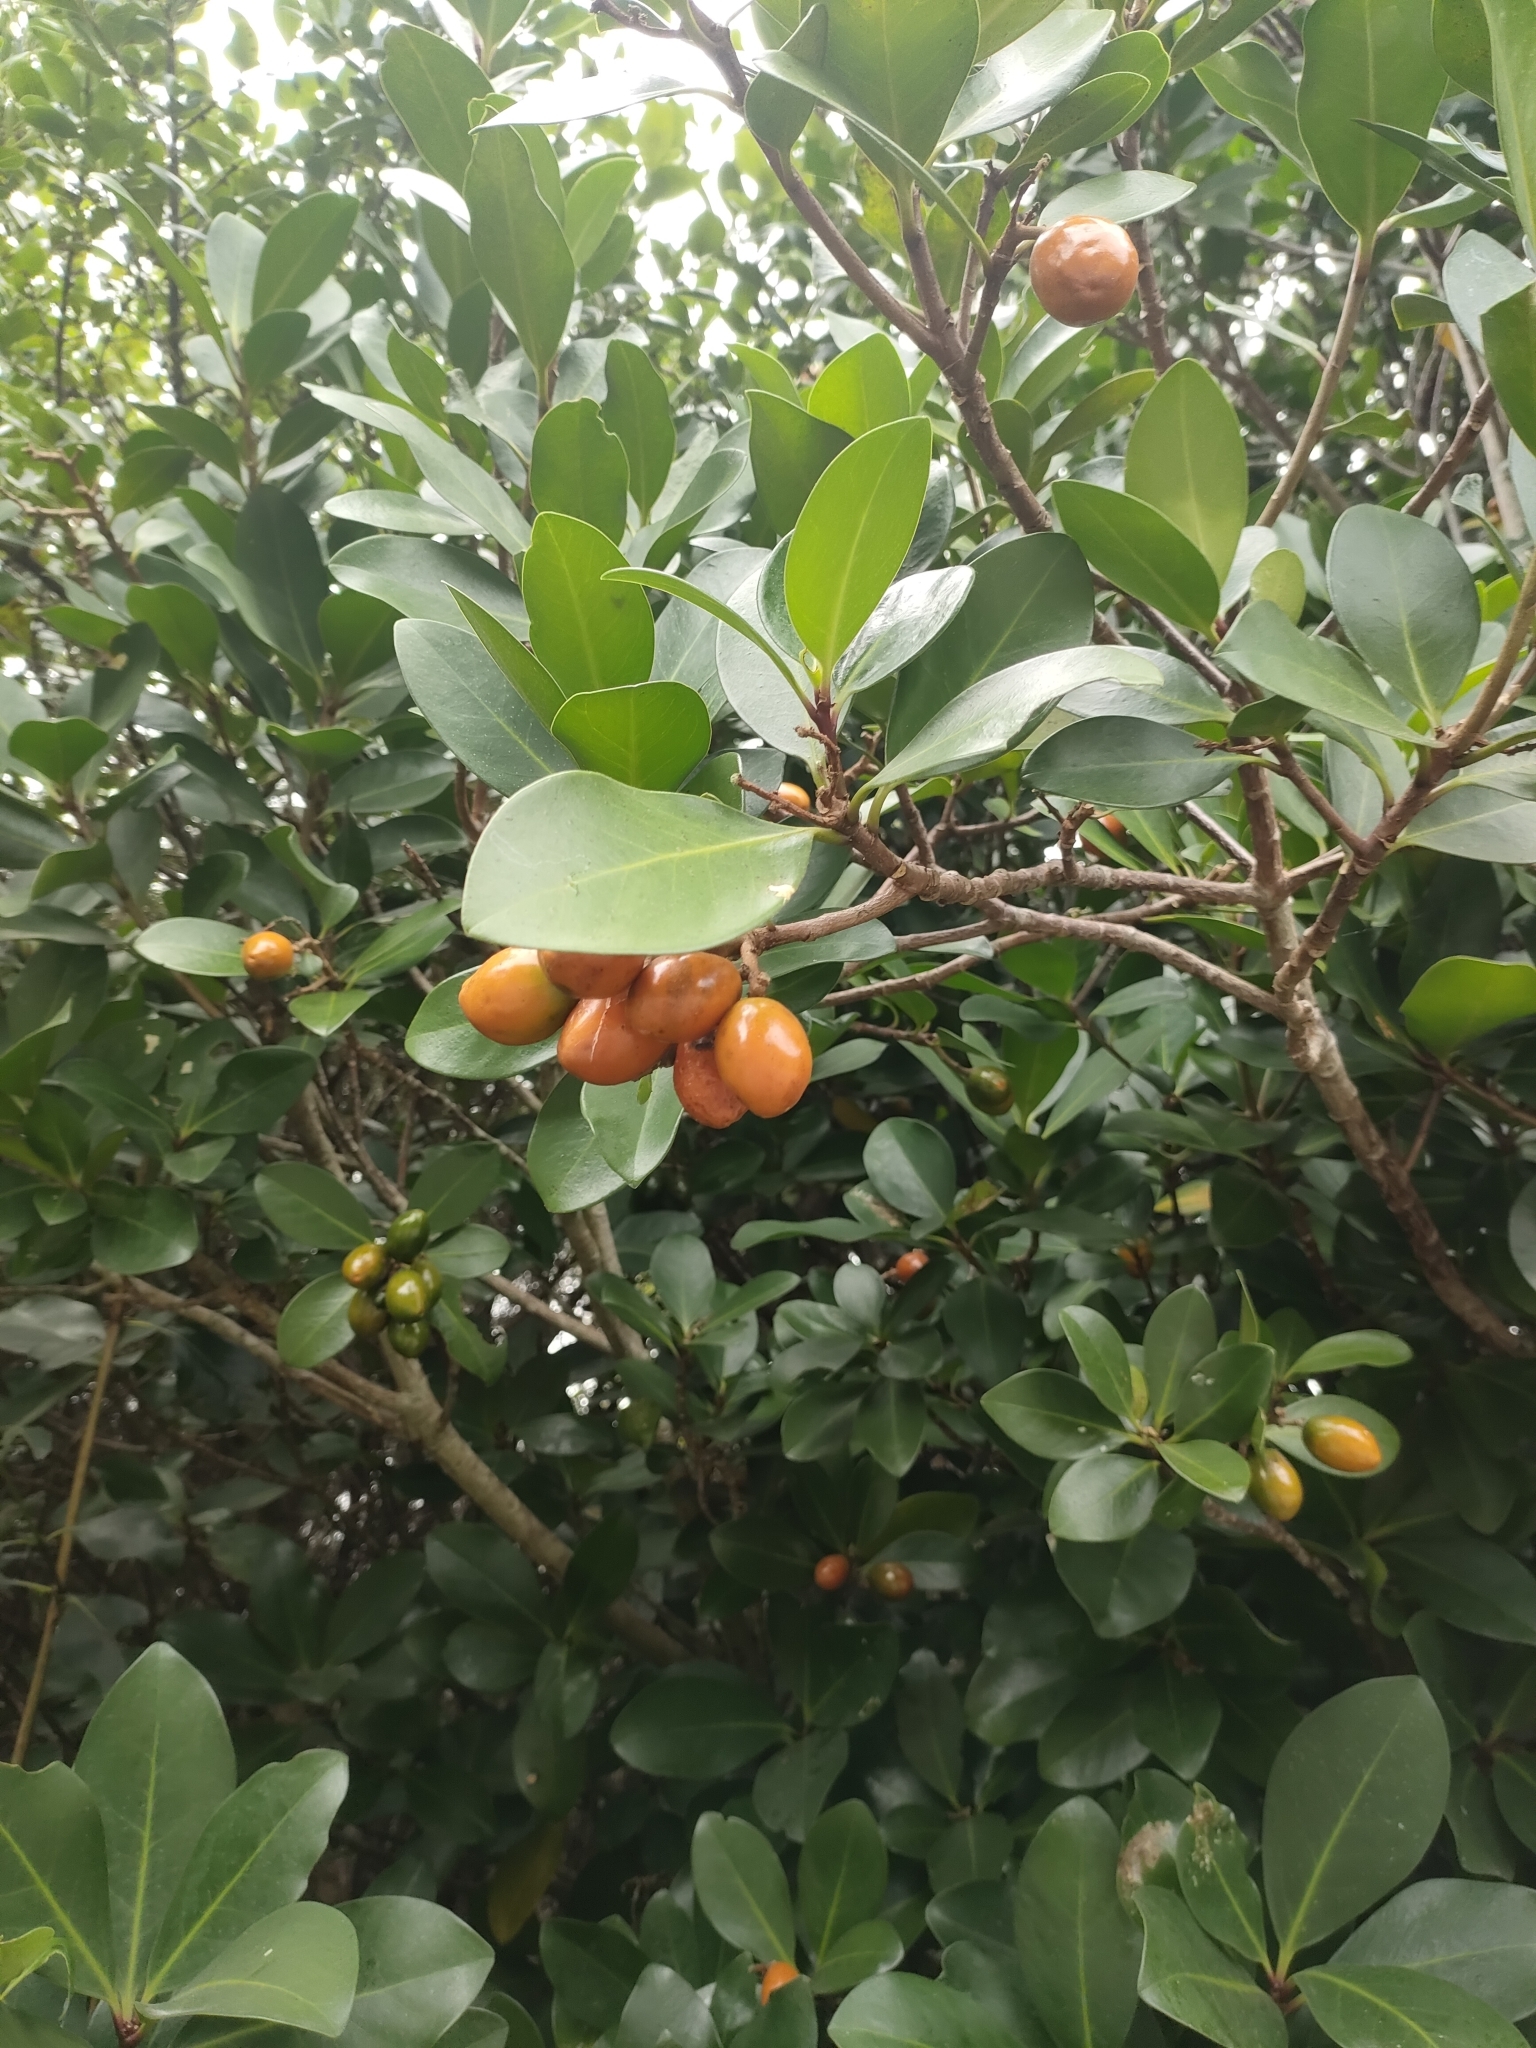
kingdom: Plantae
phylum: Tracheophyta
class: Magnoliopsida
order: Cucurbitales
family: Corynocarpaceae
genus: Corynocarpus
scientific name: Corynocarpus laevigatus
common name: New zealand laurel
